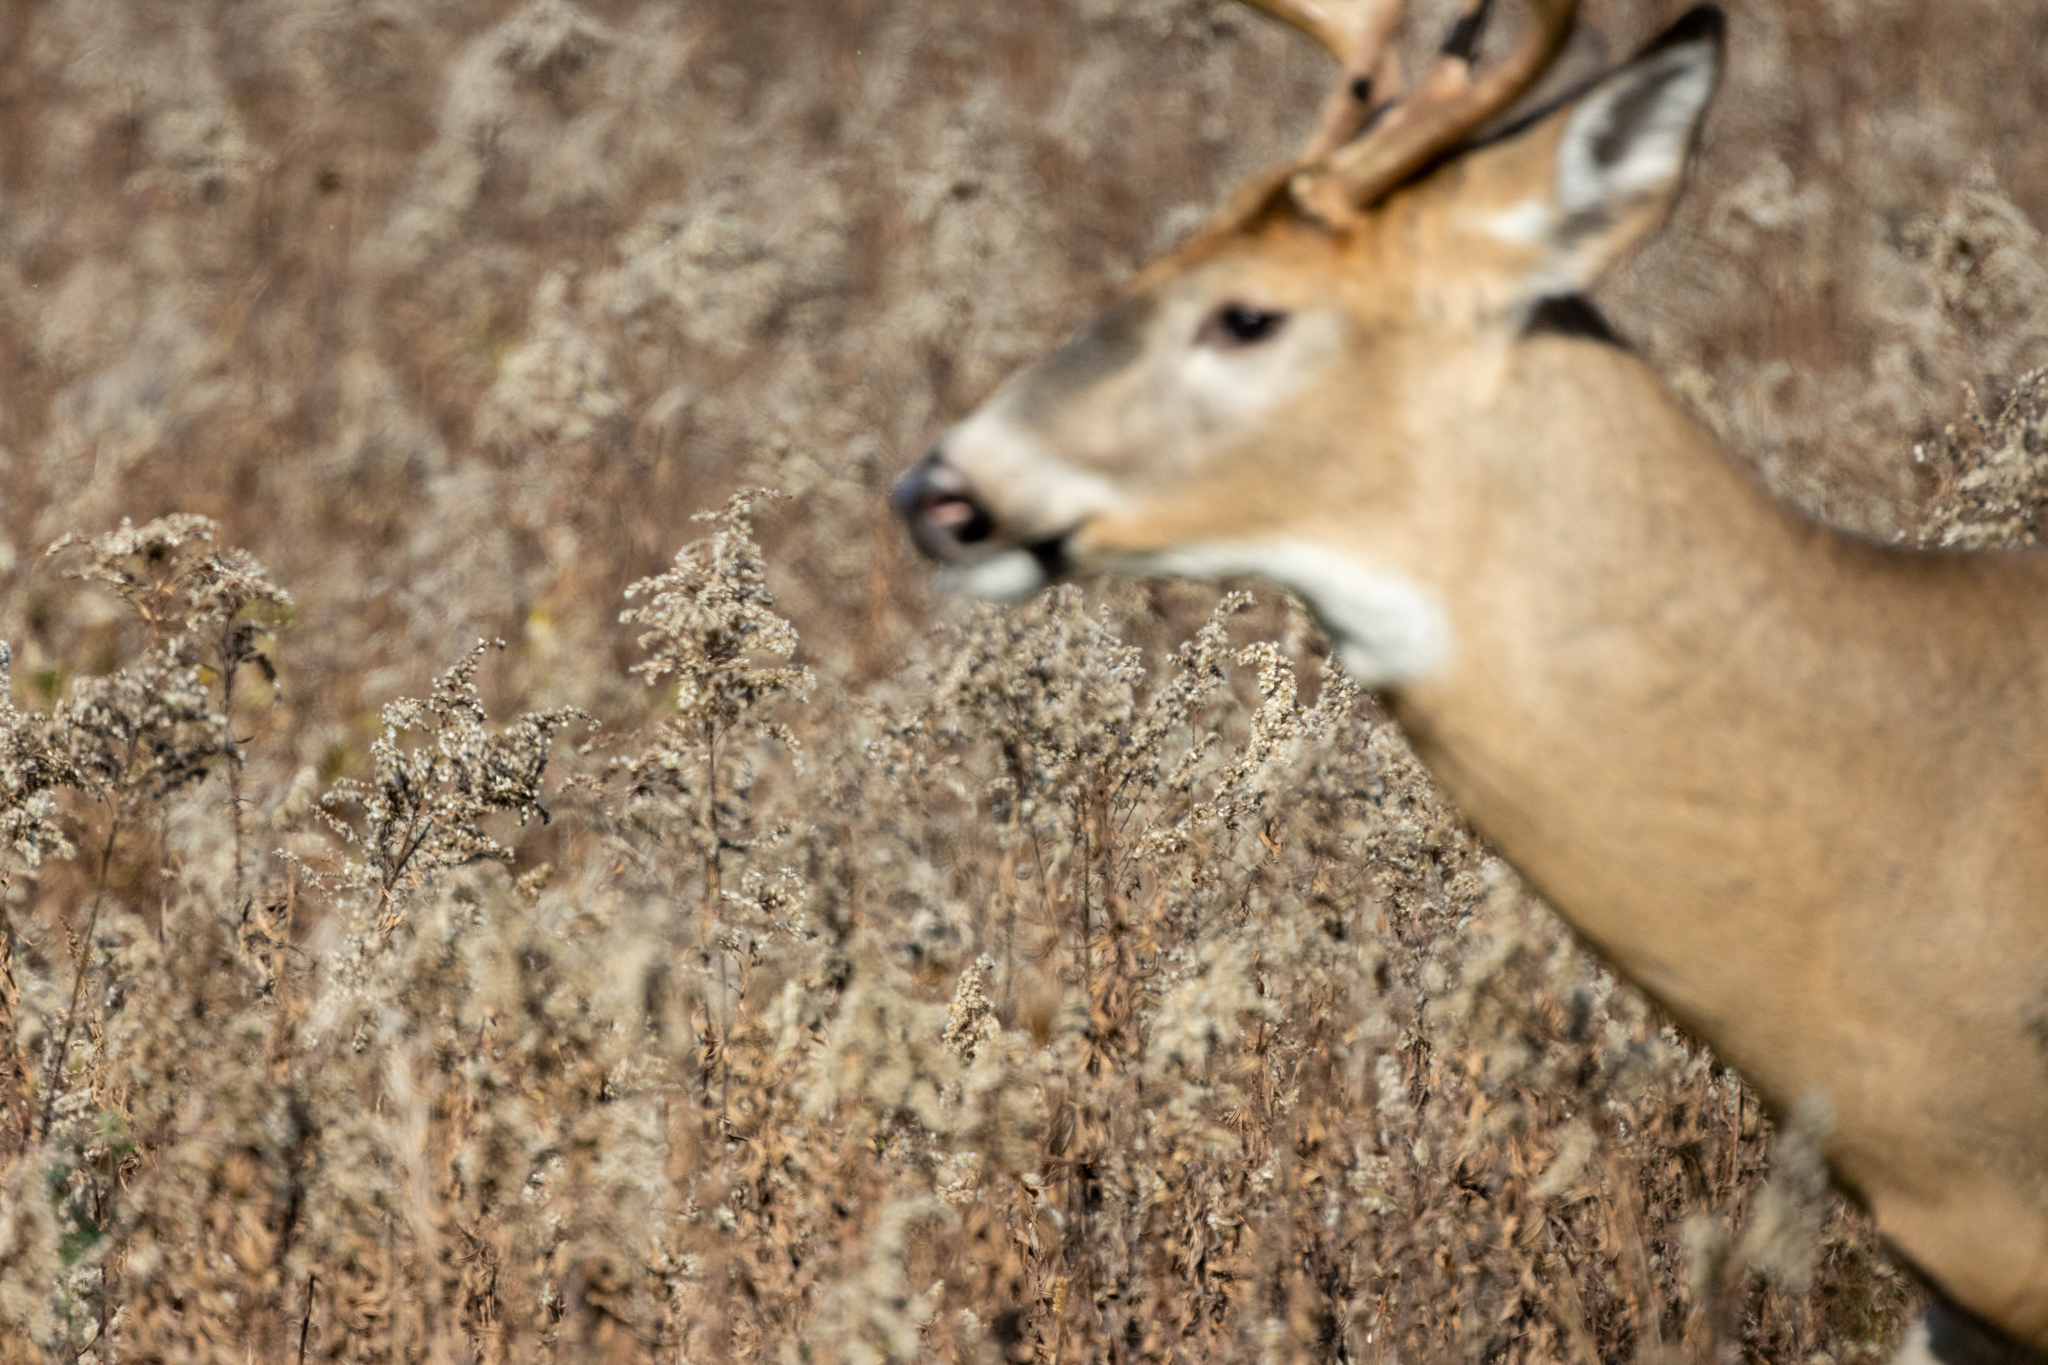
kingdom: Animalia
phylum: Chordata
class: Mammalia
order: Artiodactyla
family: Cervidae
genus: Odocoileus
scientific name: Odocoileus virginianus
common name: White-tailed deer
